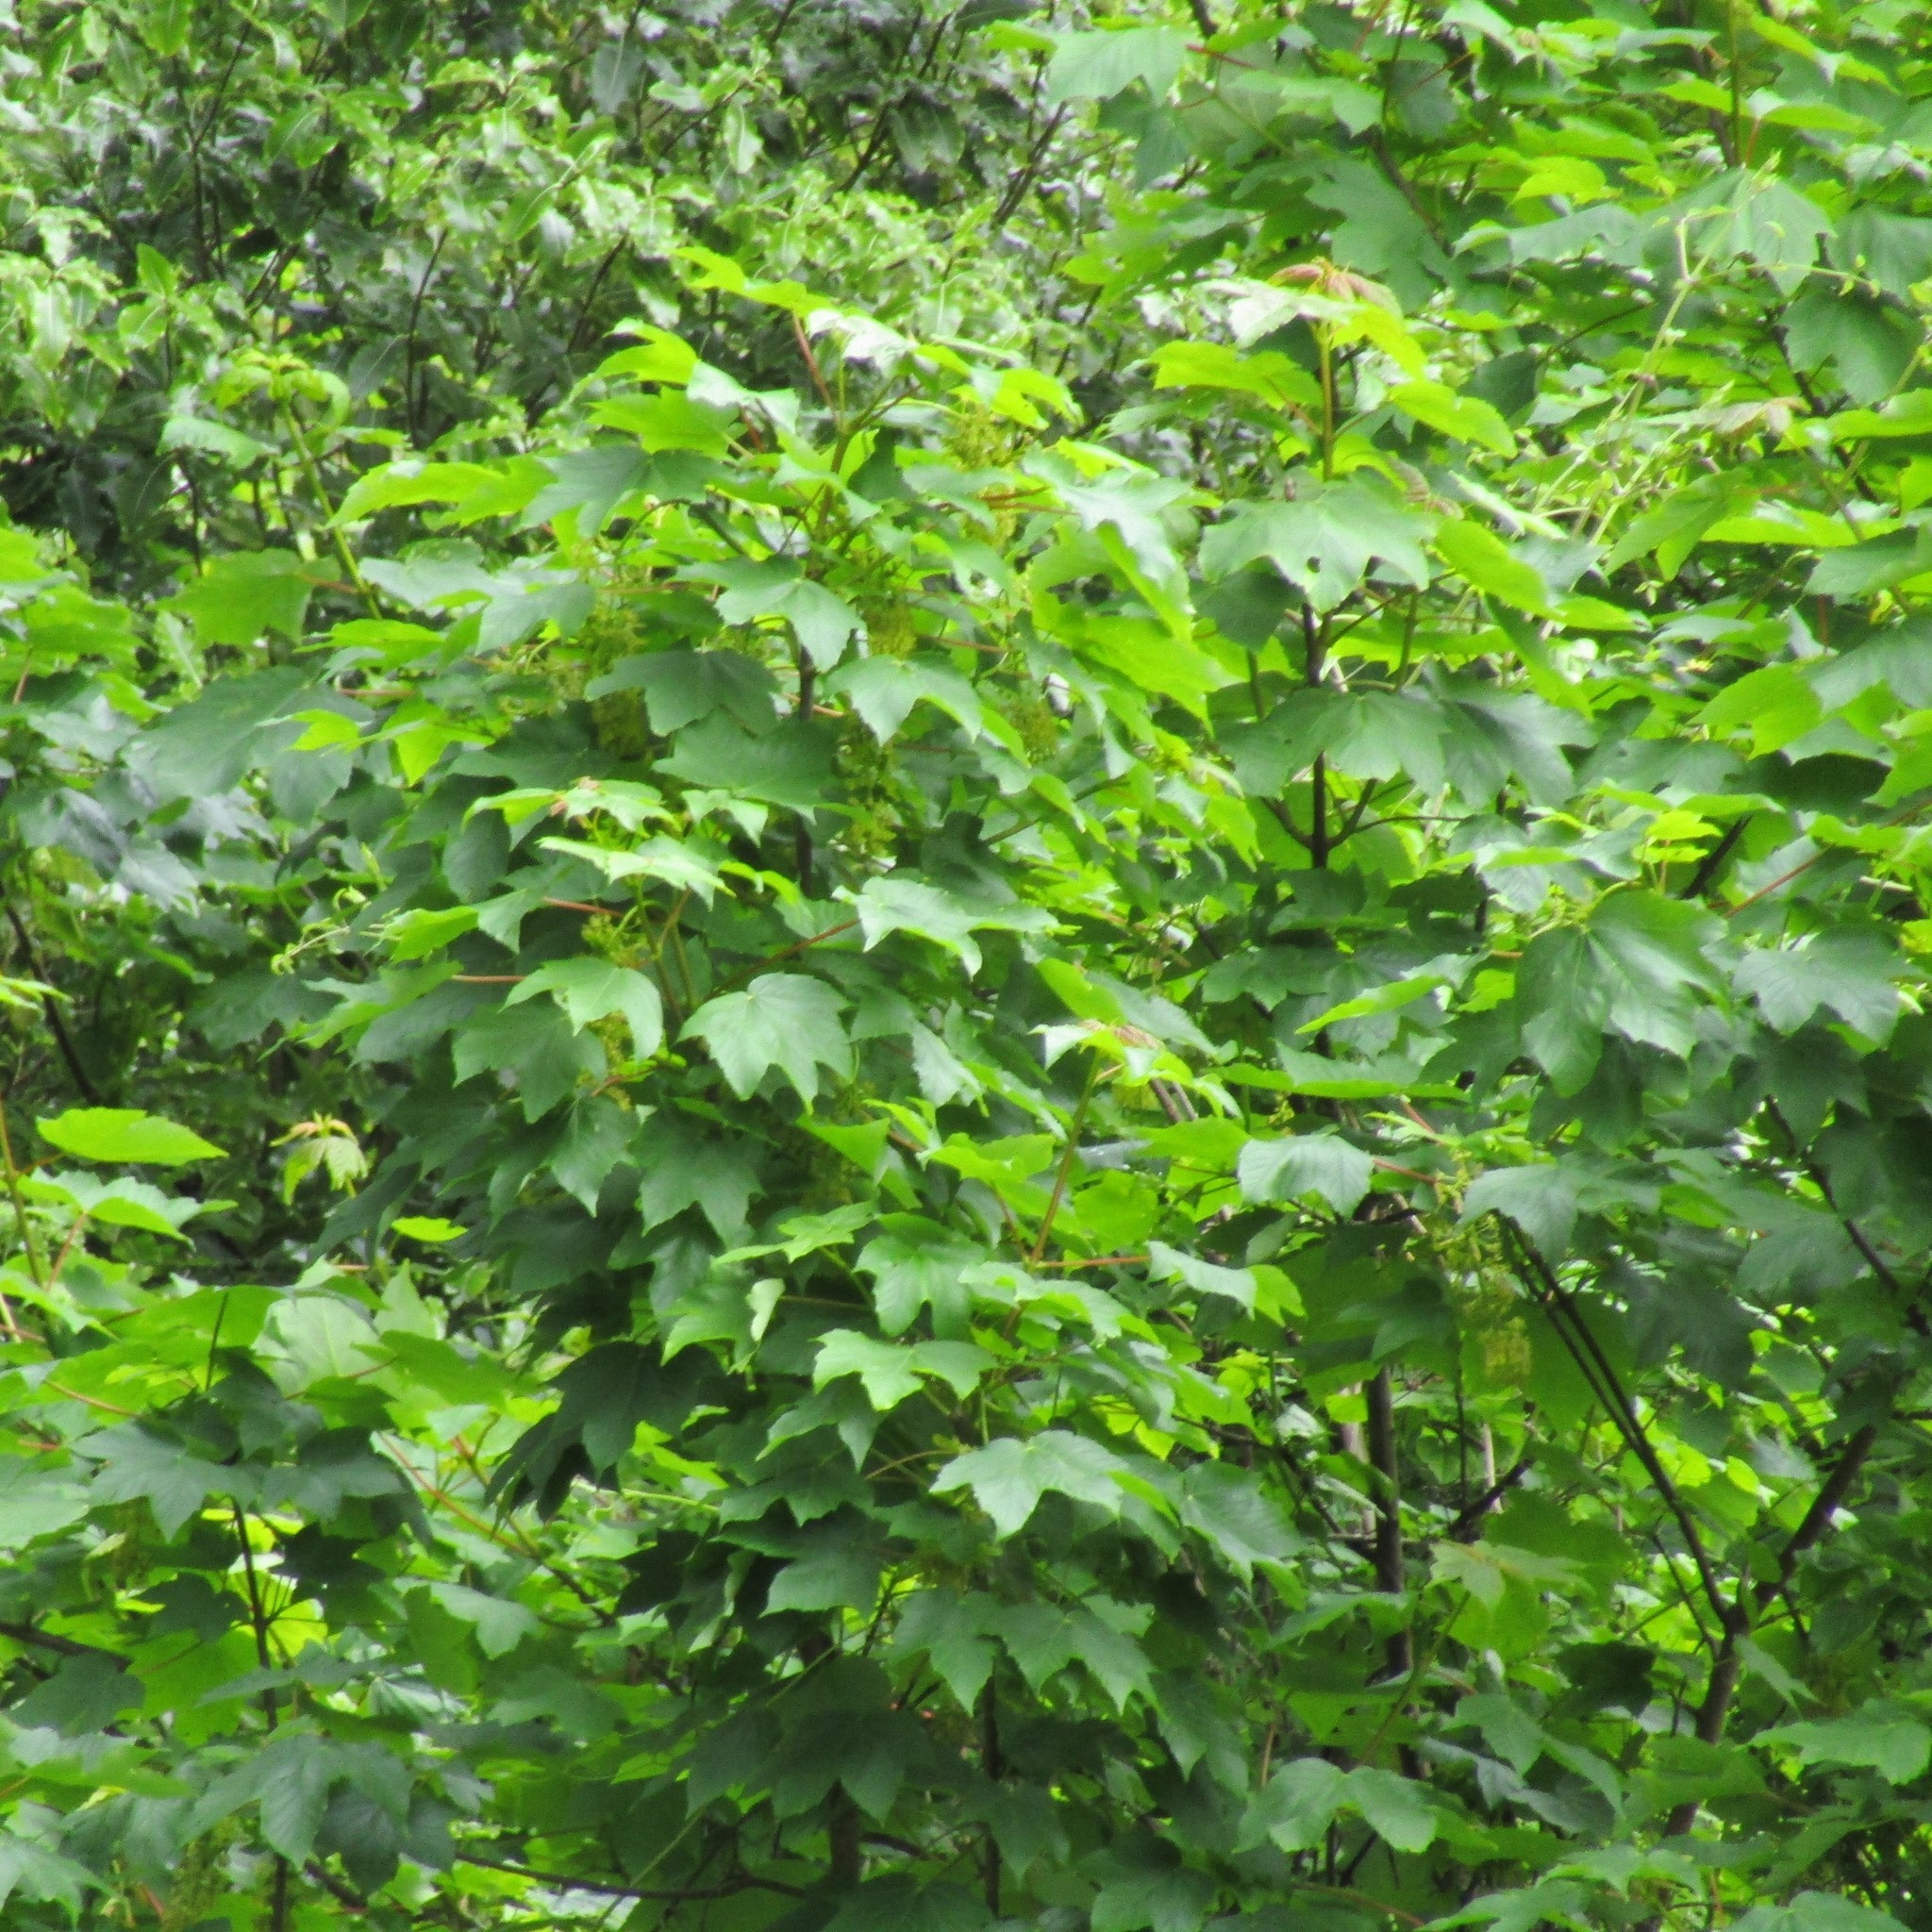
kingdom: Plantae
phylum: Tracheophyta
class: Magnoliopsida
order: Sapindales
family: Sapindaceae
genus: Acer
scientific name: Acer pseudoplatanus
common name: Sycamore
